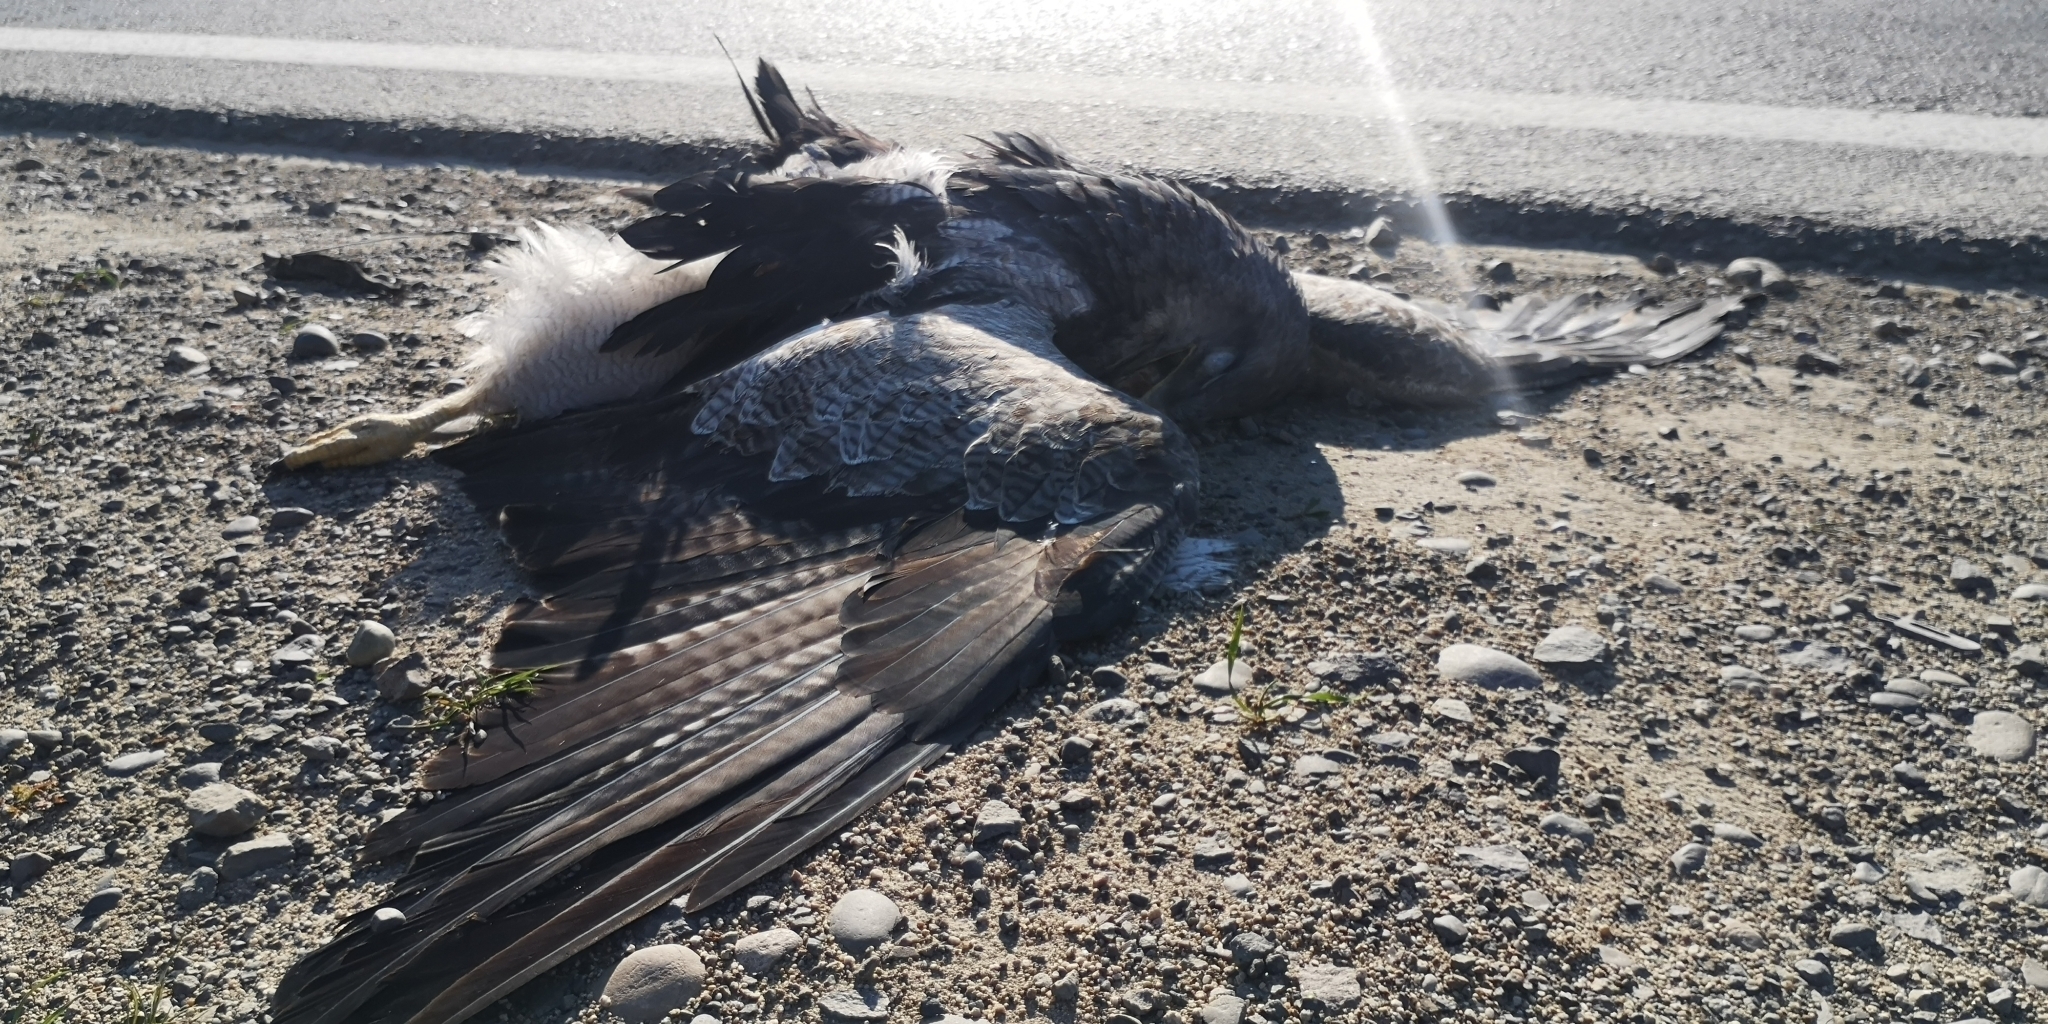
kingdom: Animalia
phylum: Chordata
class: Aves
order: Accipitriformes
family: Accipitridae
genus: Geranoaetus
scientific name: Geranoaetus melanoleucus
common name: Black-chested buzzard-eagle
